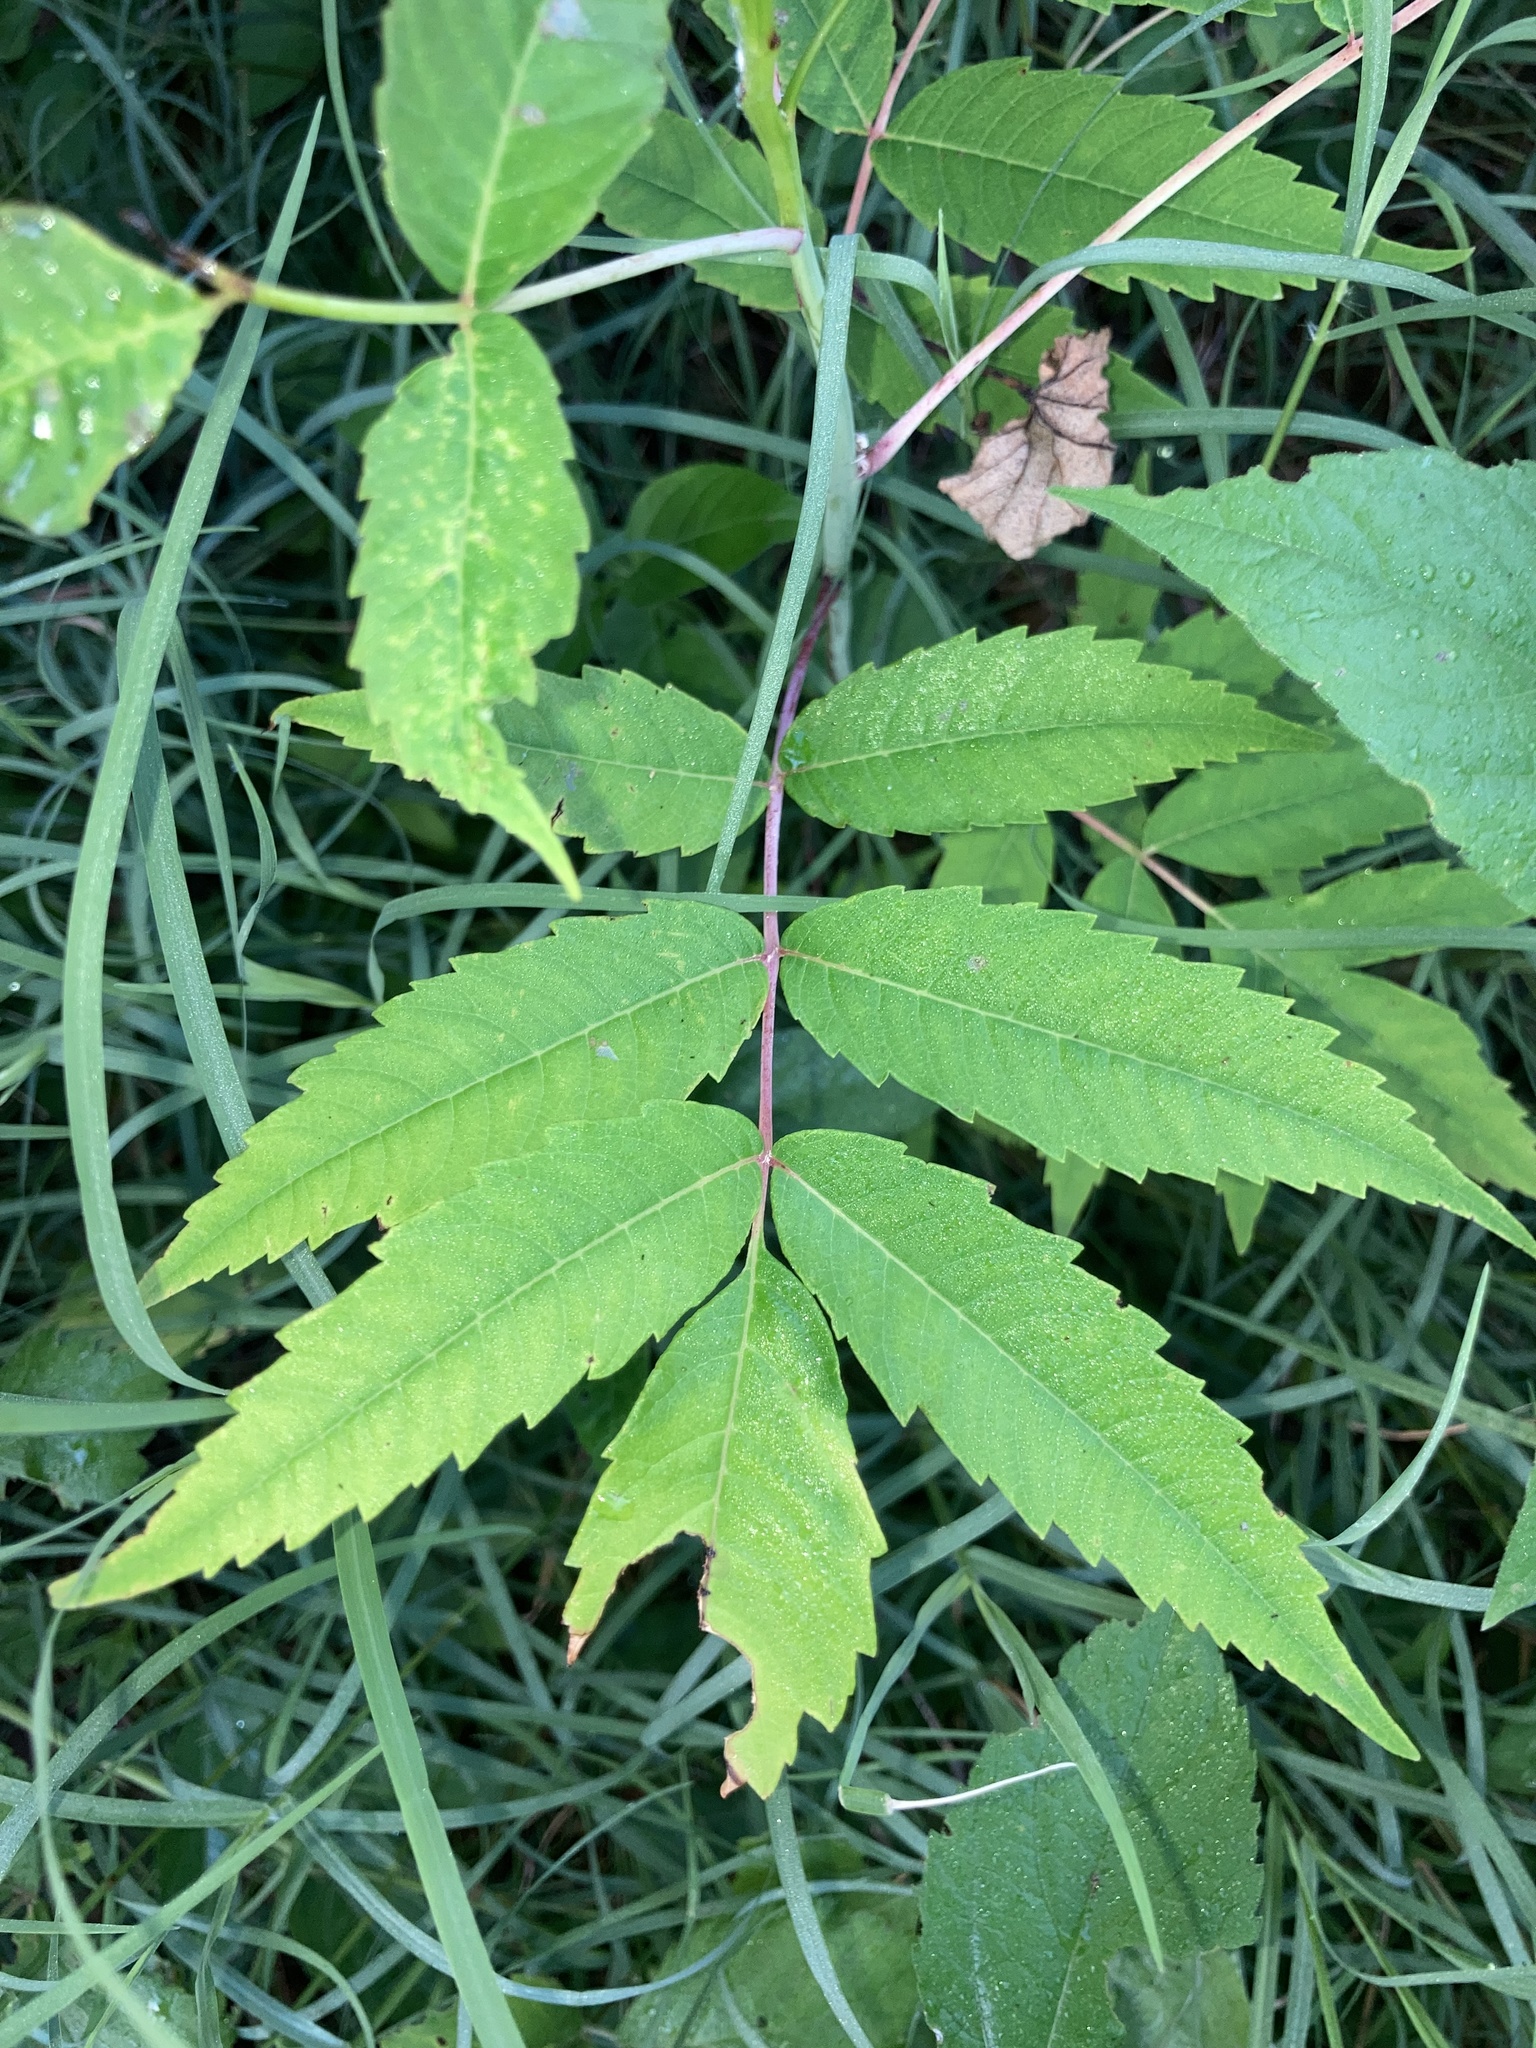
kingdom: Plantae
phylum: Tracheophyta
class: Magnoliopsida
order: Sapindales
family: Anacardiaceae
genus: Rhus
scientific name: Rhus glabra
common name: Scarlet sumac
